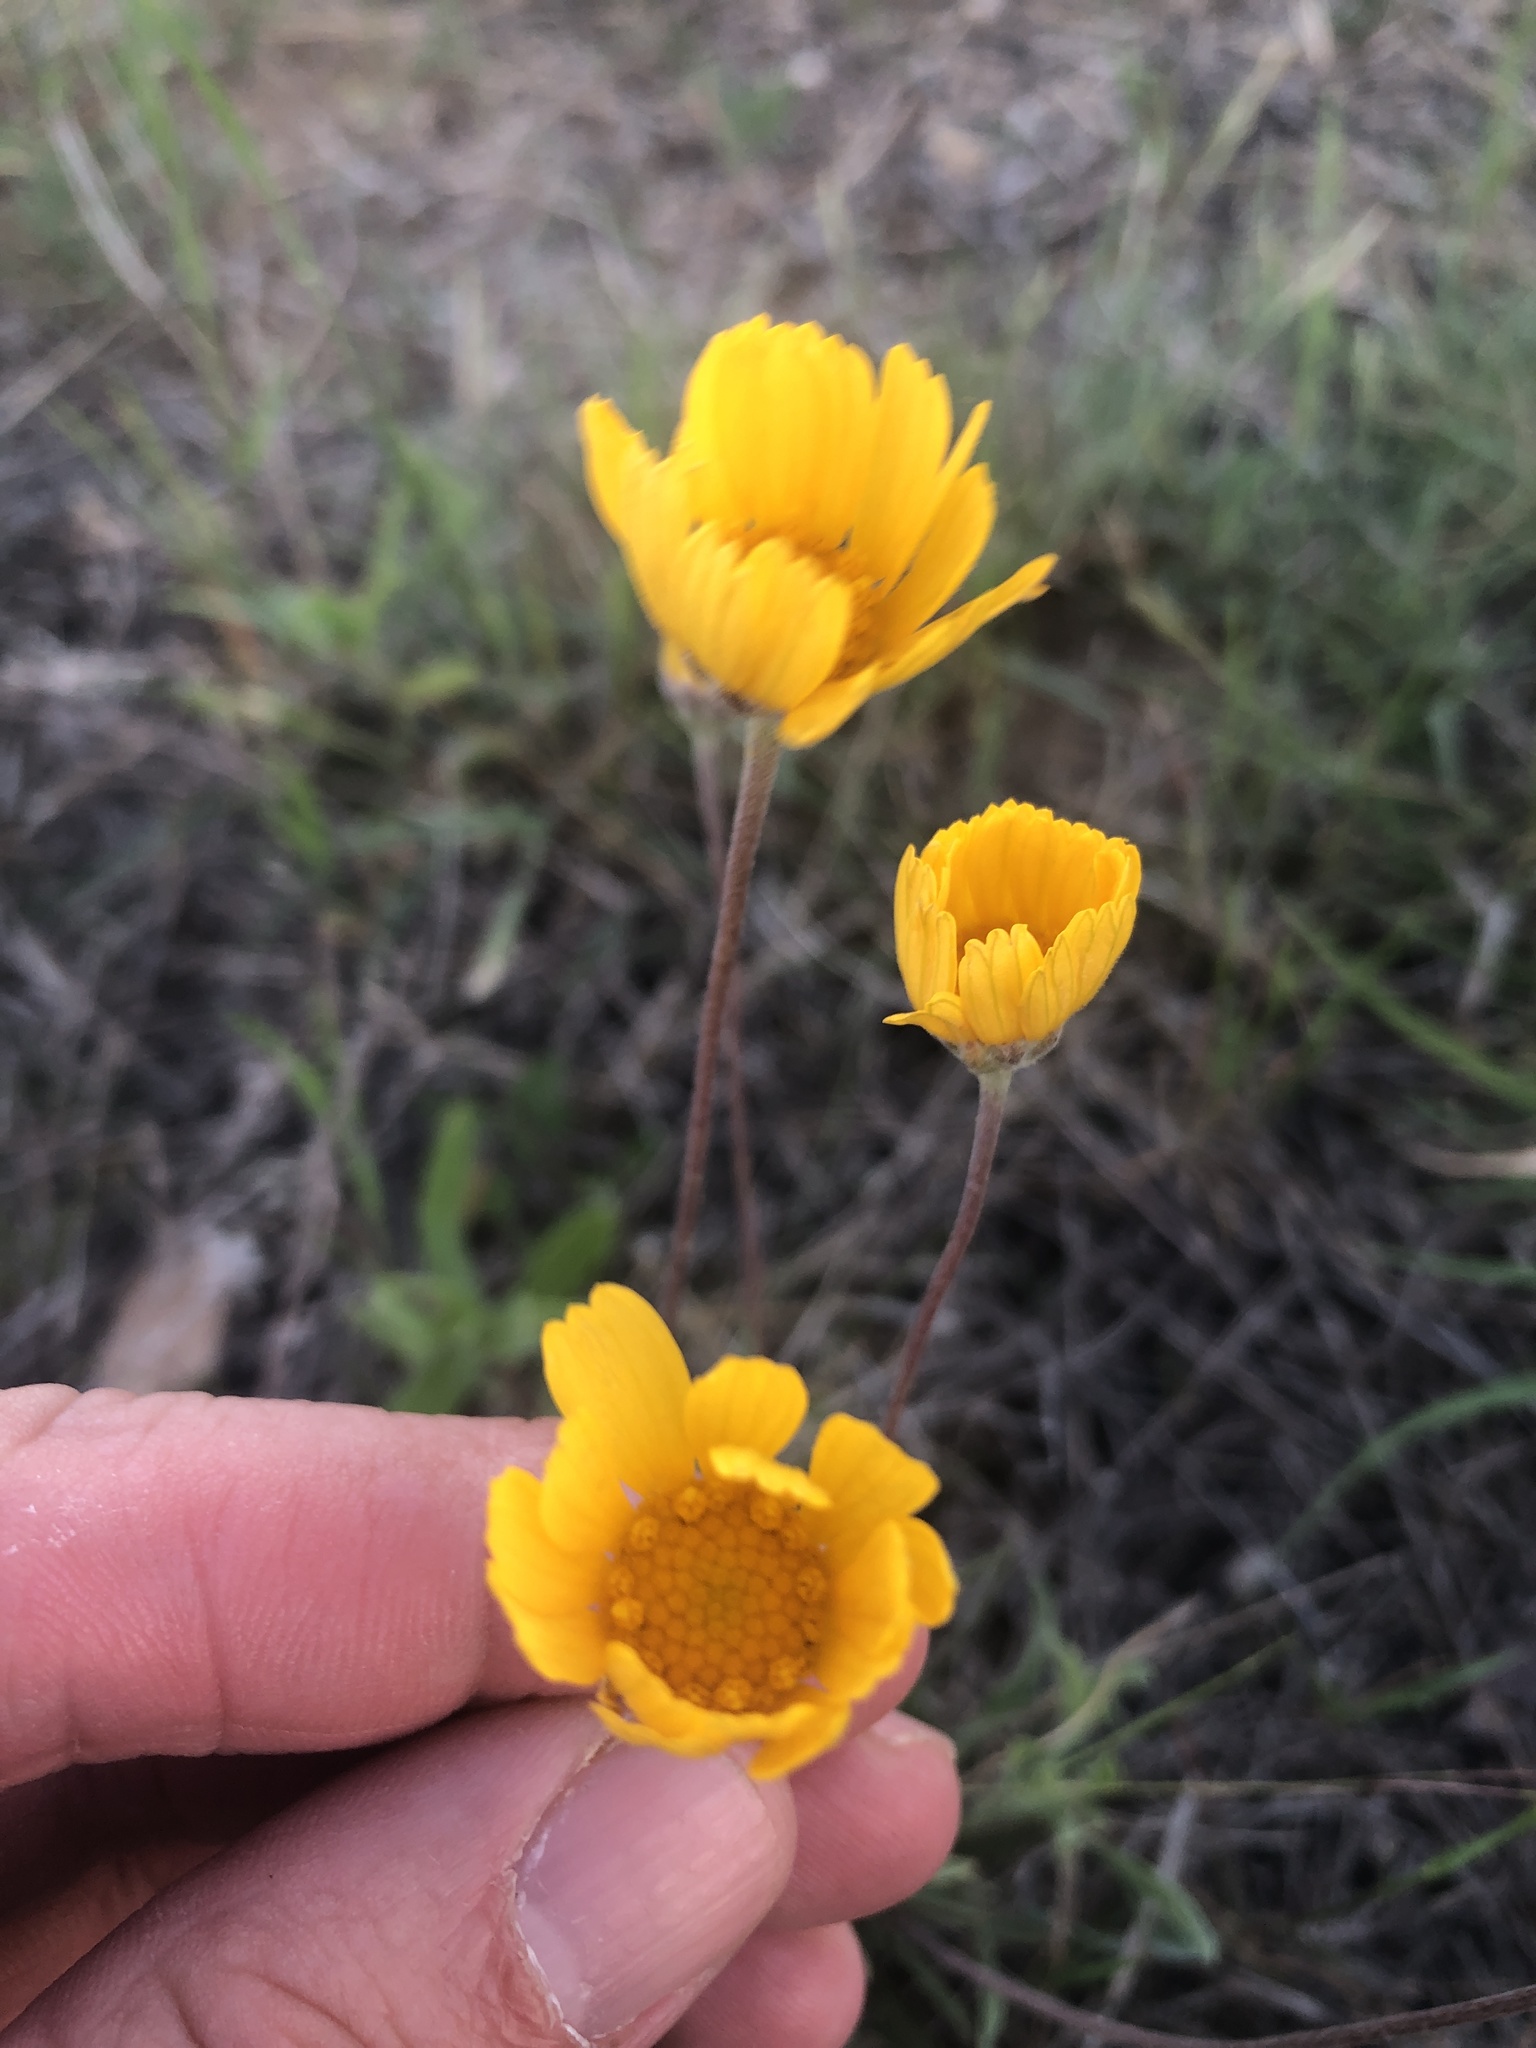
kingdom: Plantae
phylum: Tracheophyta
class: Magnoliopsida
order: Asterales
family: Asteraceae
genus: Tetraneuris
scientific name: Tetraneuris scaposa
